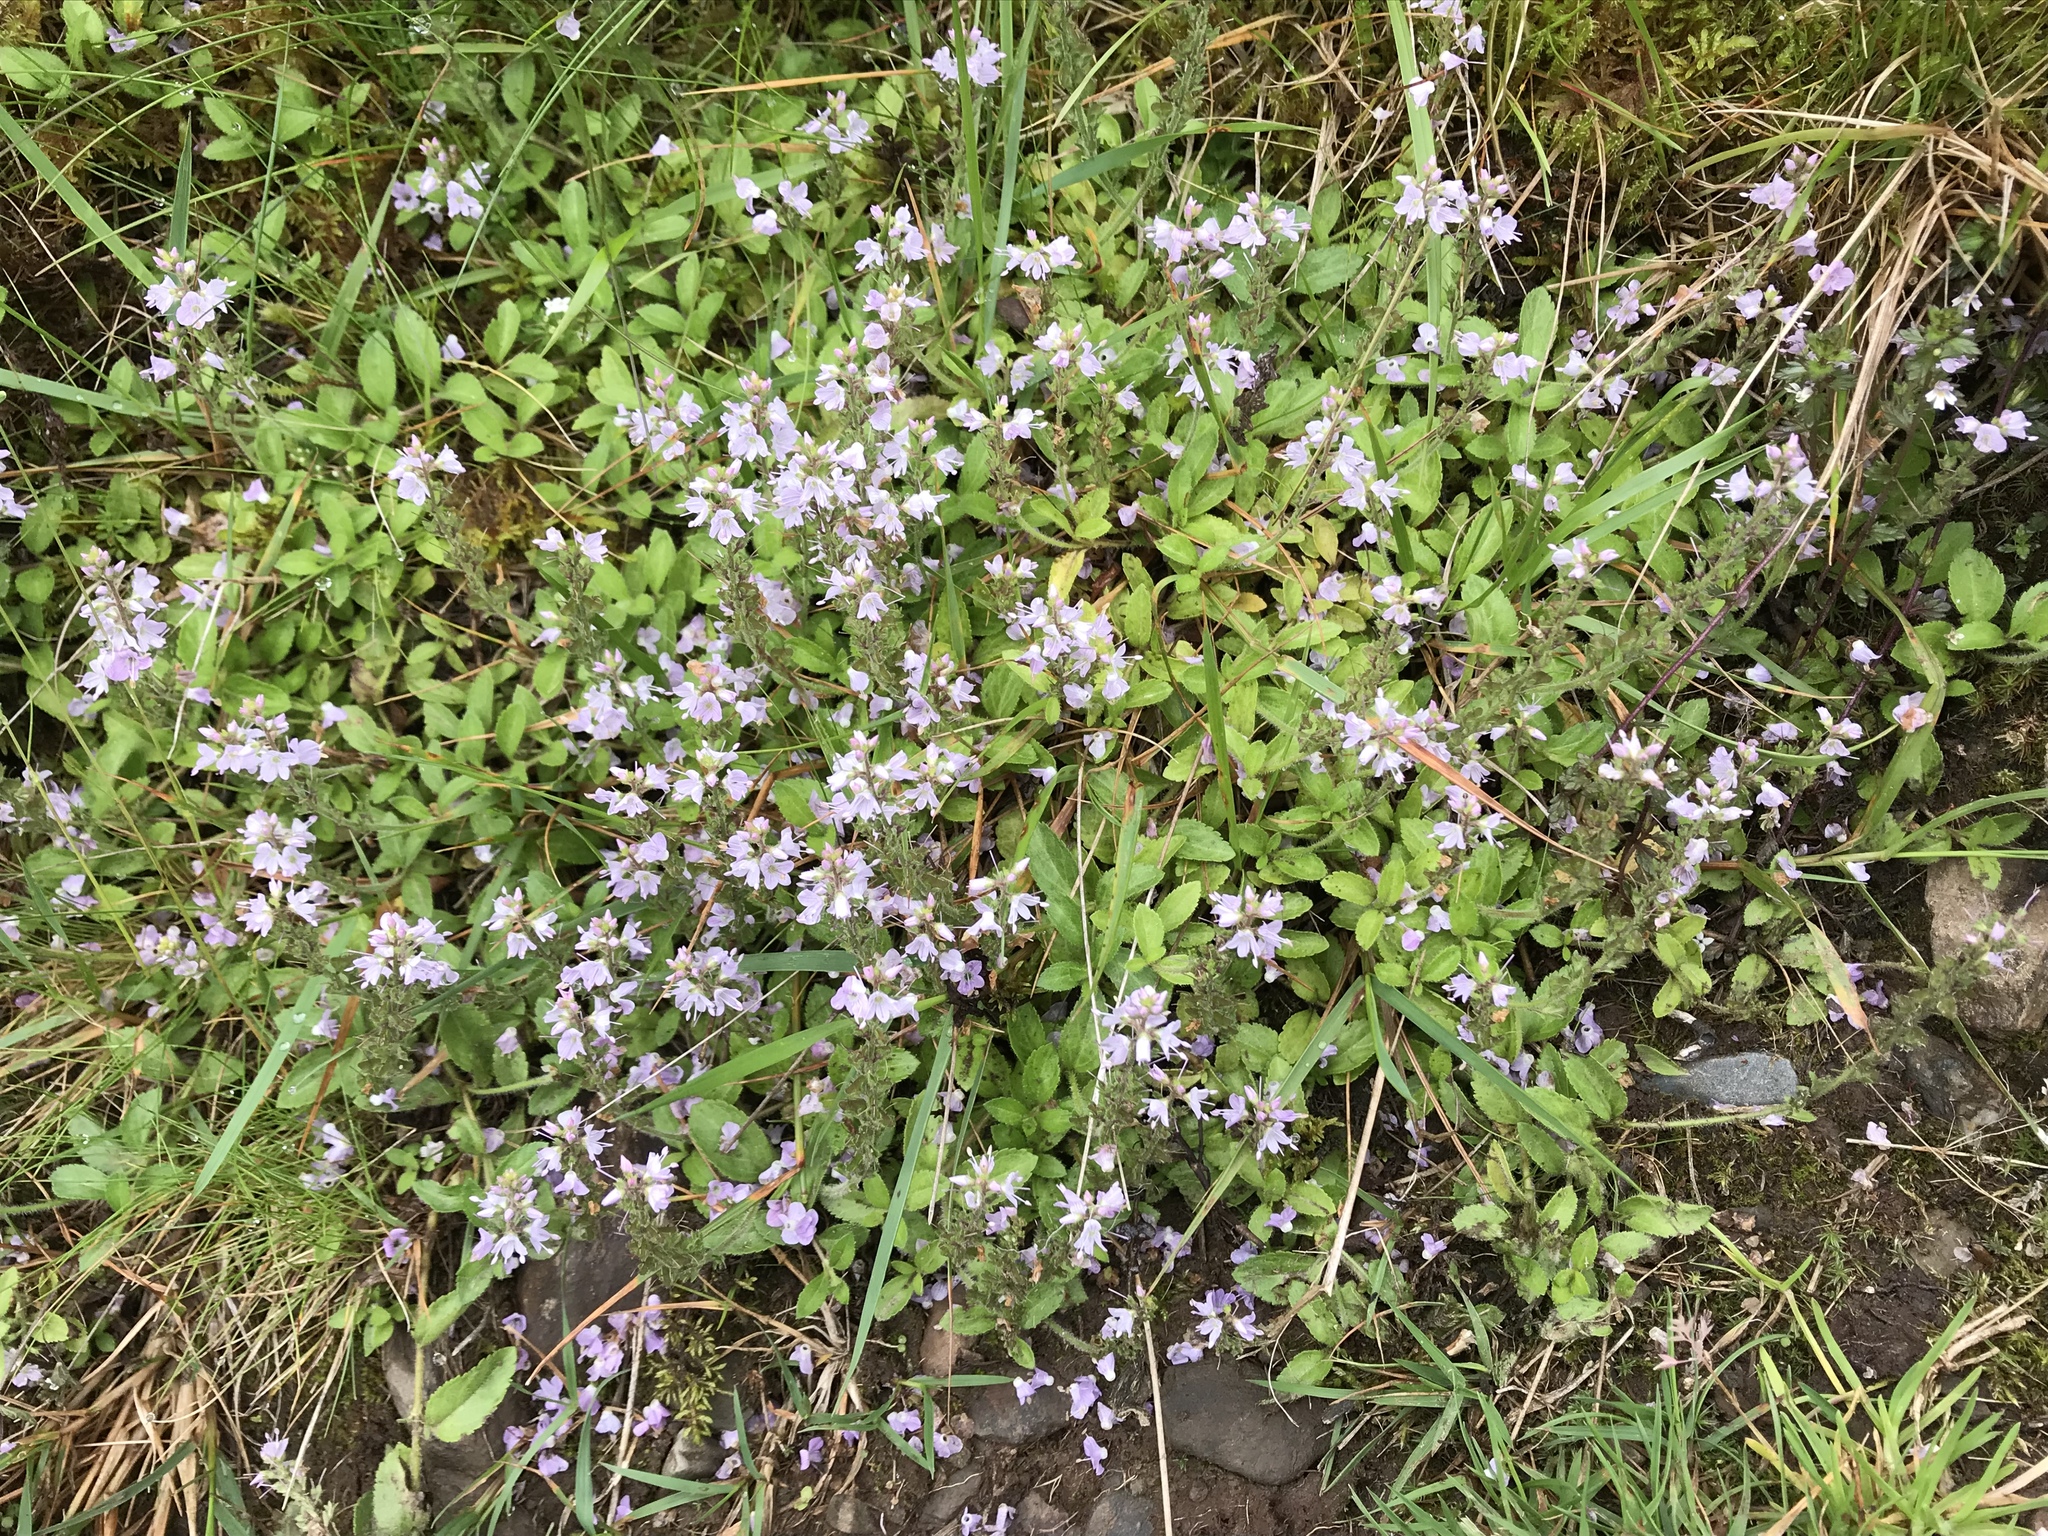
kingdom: Plantae
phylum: Tracheophyta
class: Magnoliopsida
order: Lamiales
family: Plantaginaceae
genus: Veronica
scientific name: Veronica officinalis
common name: Common speedwell
